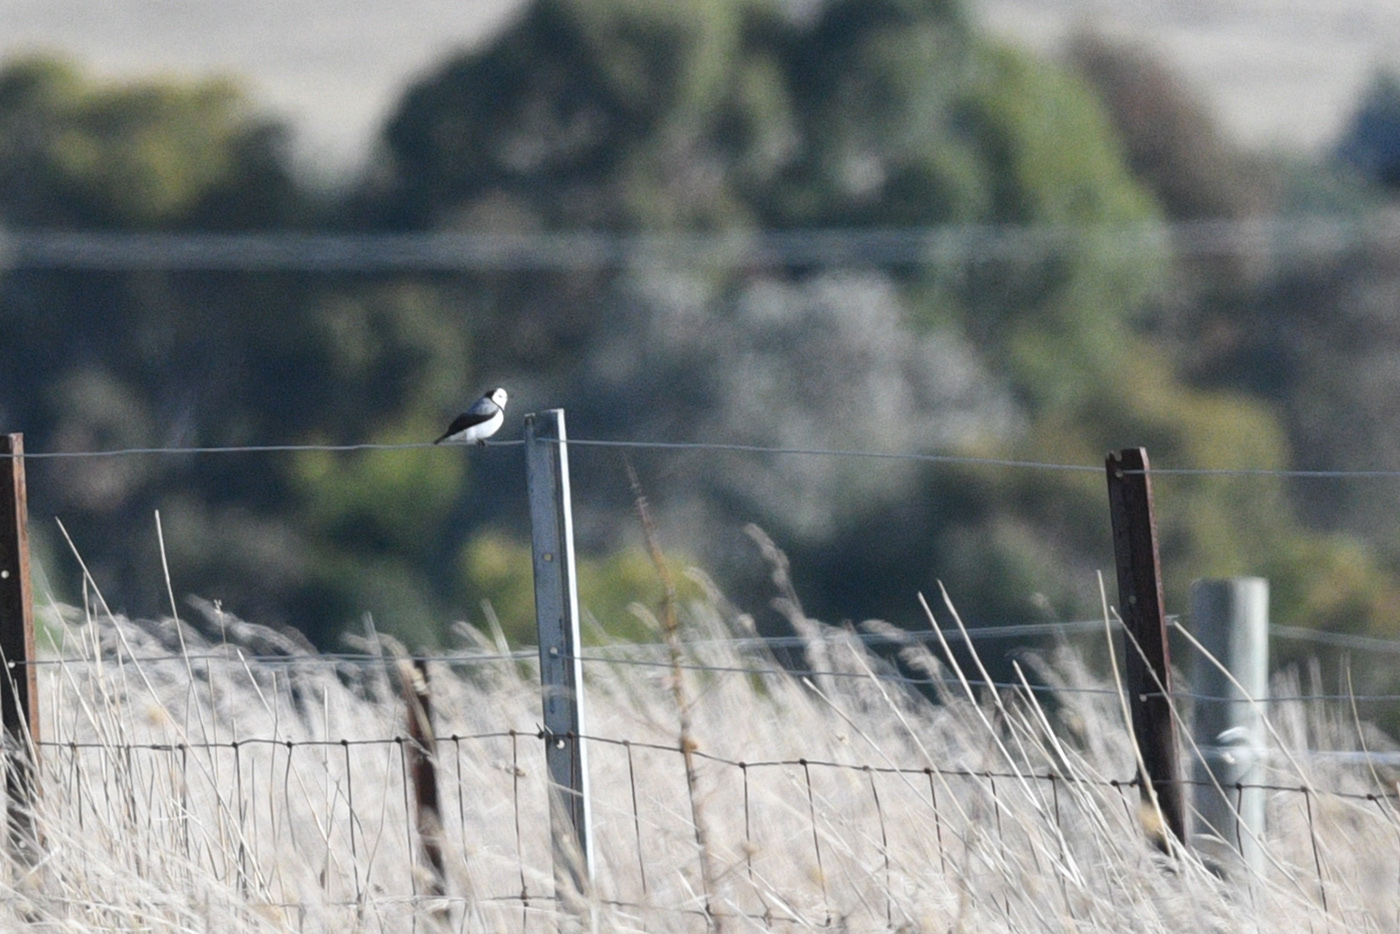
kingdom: Animalia
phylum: Chordata
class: Aves
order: Passeriformes
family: Meliphagidae
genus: Epthianura
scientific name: Epthianura albifrons
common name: White-fronted chat
